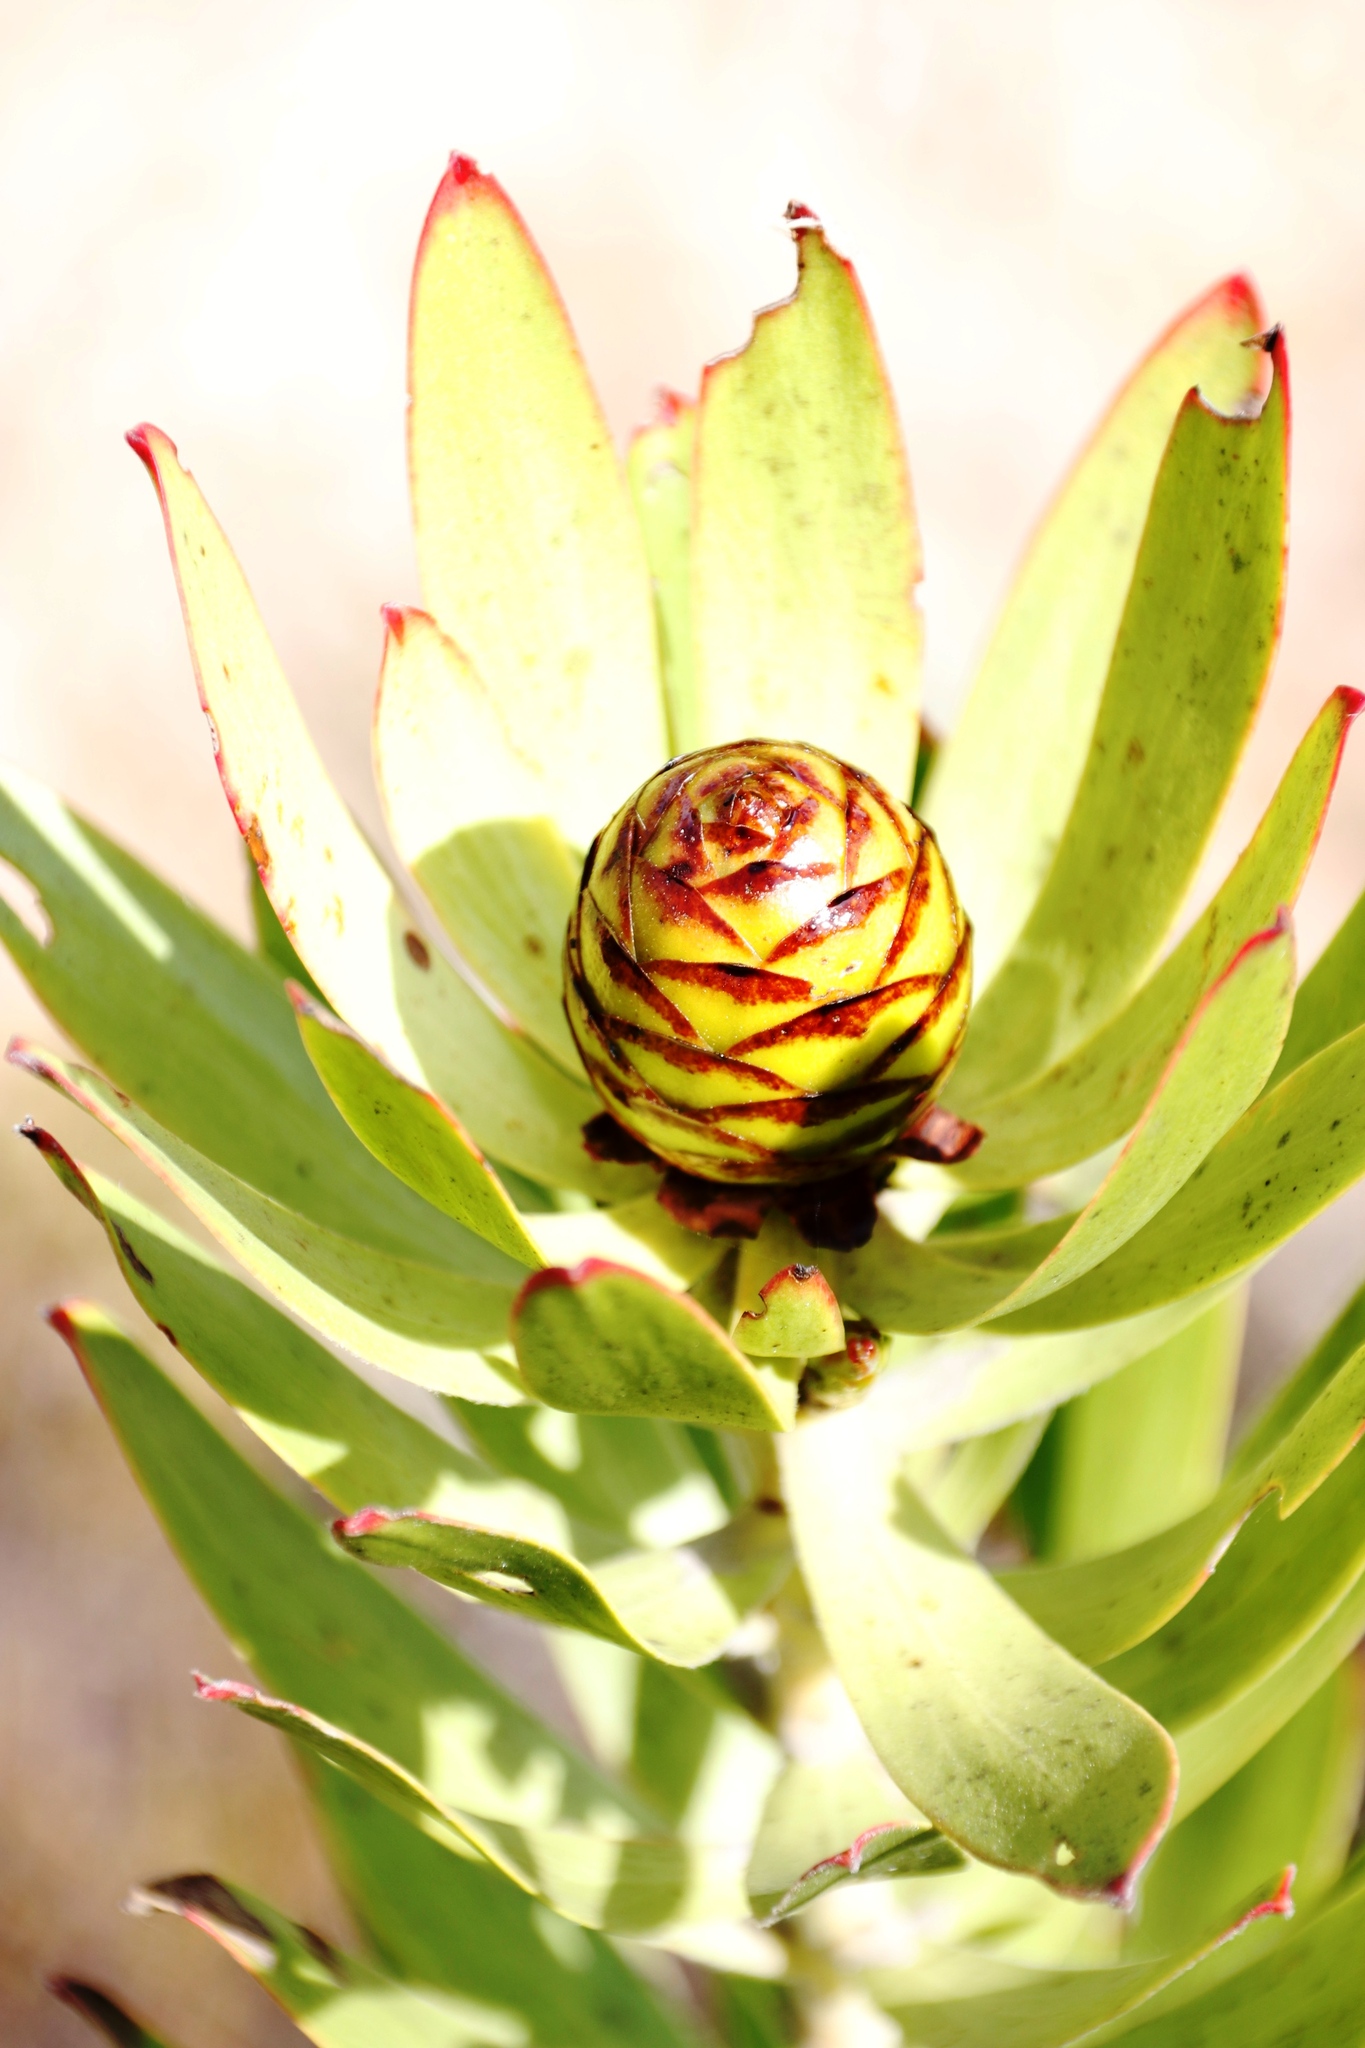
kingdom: Plantae
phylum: Tracheophyta
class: Magnoliopsida
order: Proteales
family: Proteaceae
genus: Leucadendron
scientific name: Leucadendron microcephalum
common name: Oilbract conebush
